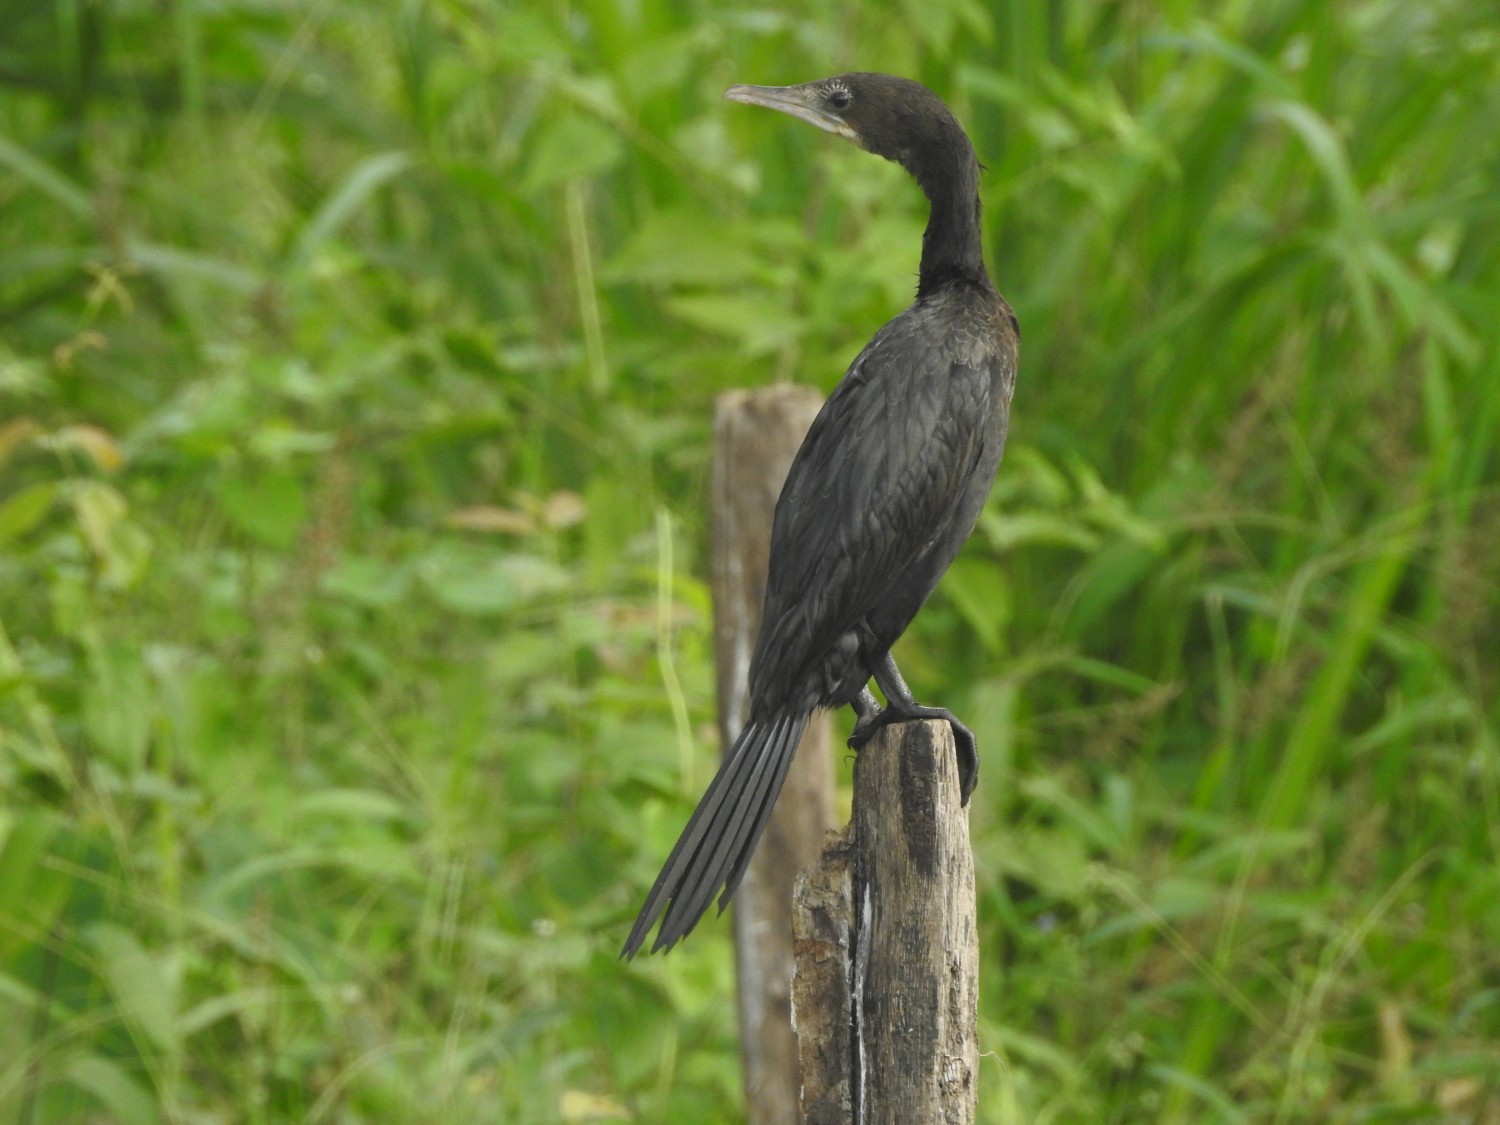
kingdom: Animalia
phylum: Chordata
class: Aves
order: Suliformes
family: Phalacrocoracidae
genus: Microcarbo
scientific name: Microcarbo niger
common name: Little cormorant
